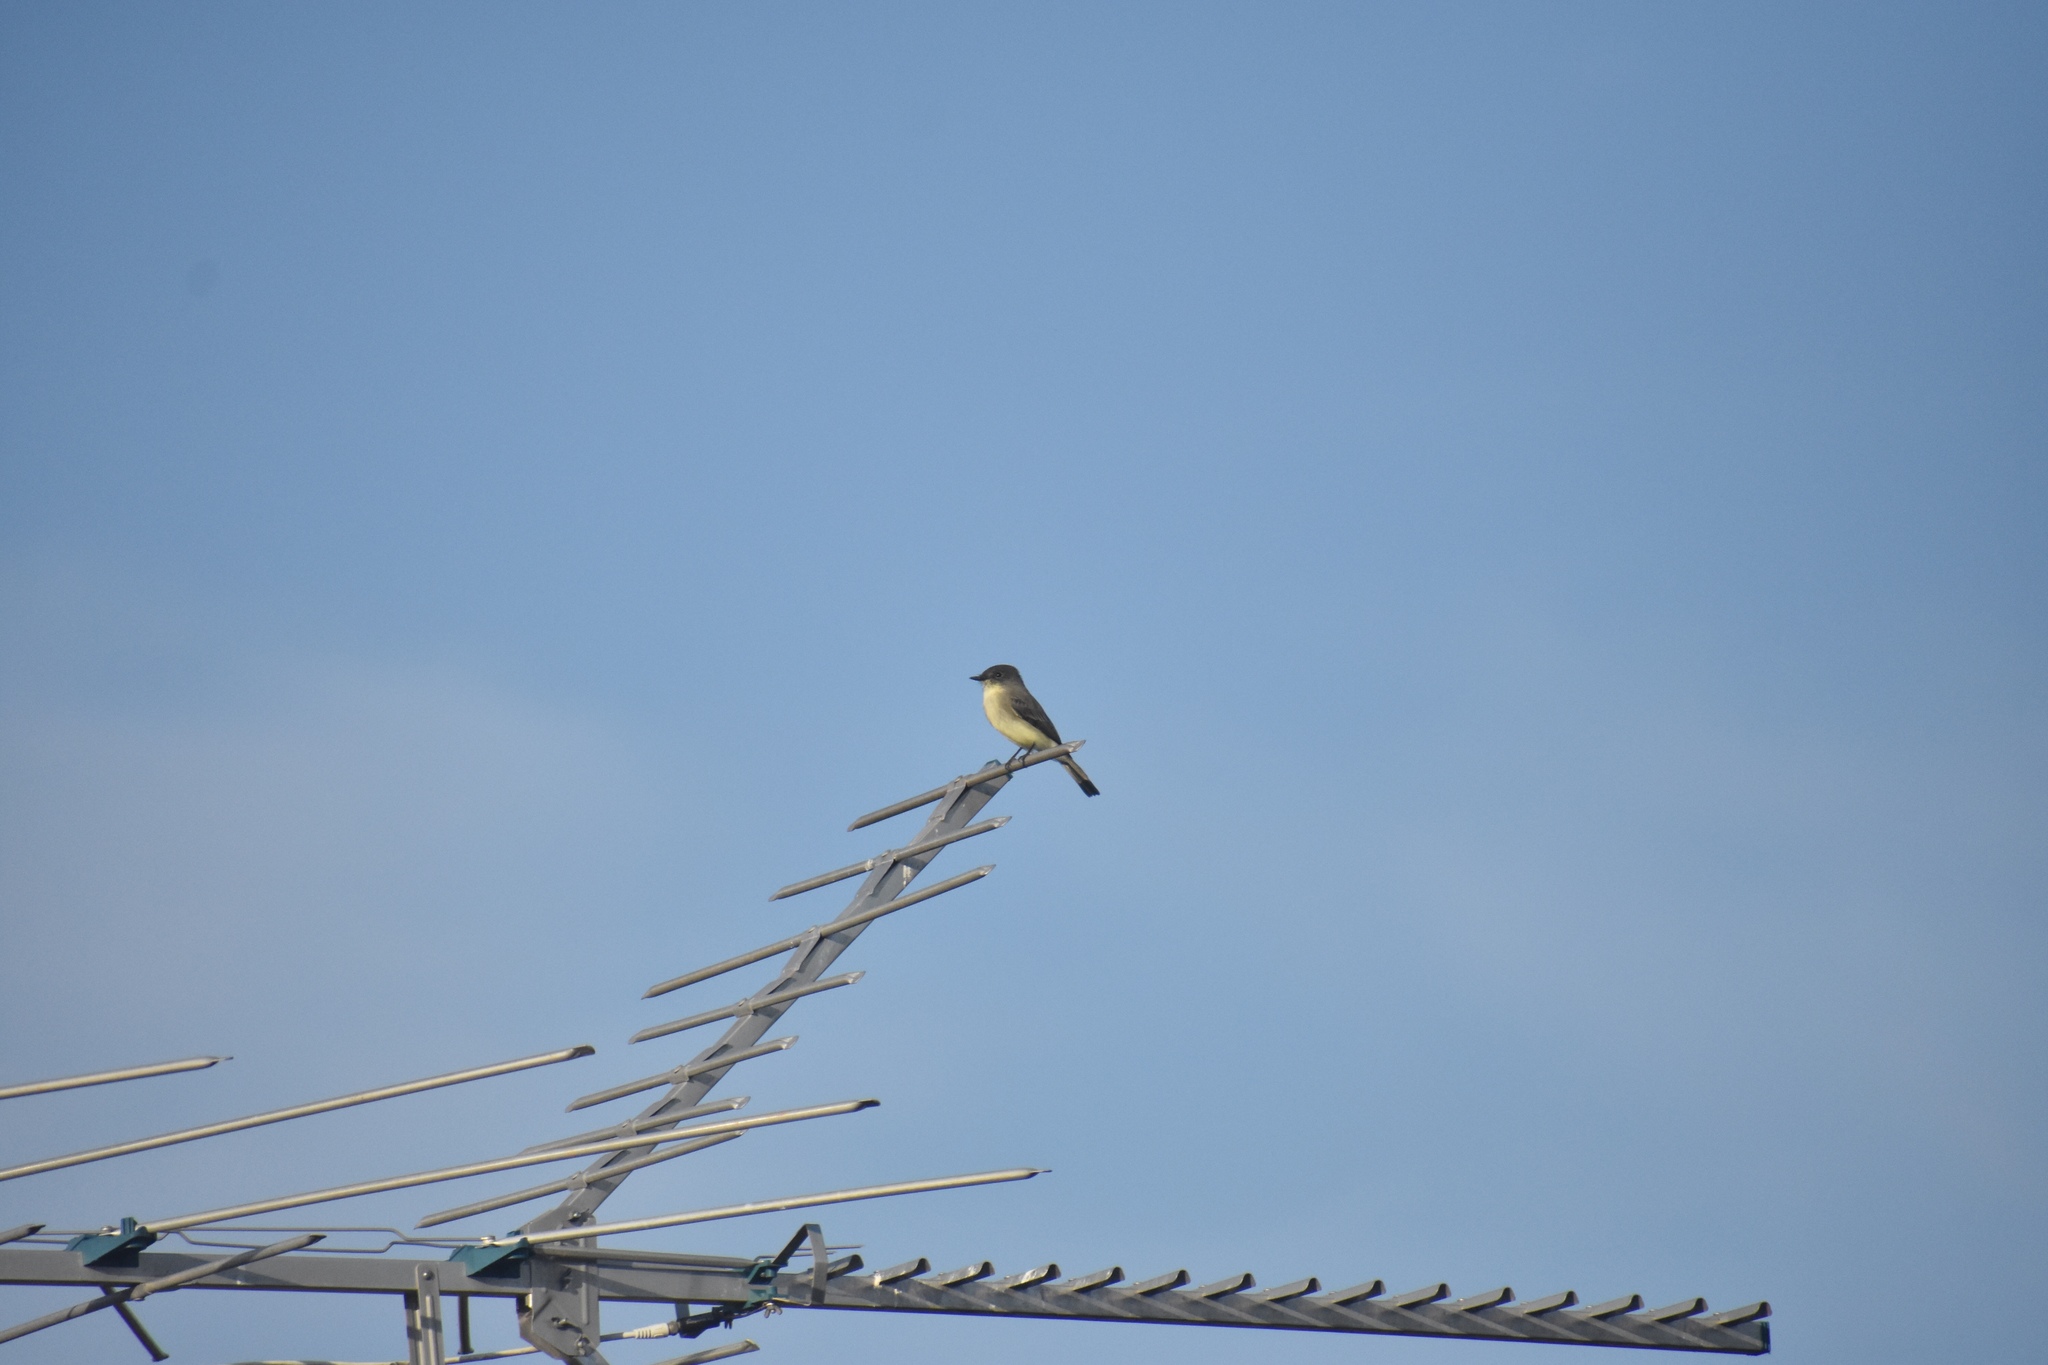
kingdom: Animalia
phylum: Chordata
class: Aves
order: Passeriformes
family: Tyrannidae
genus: Sayornis
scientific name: Sayornis phoebe
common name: Eastern phoebe
